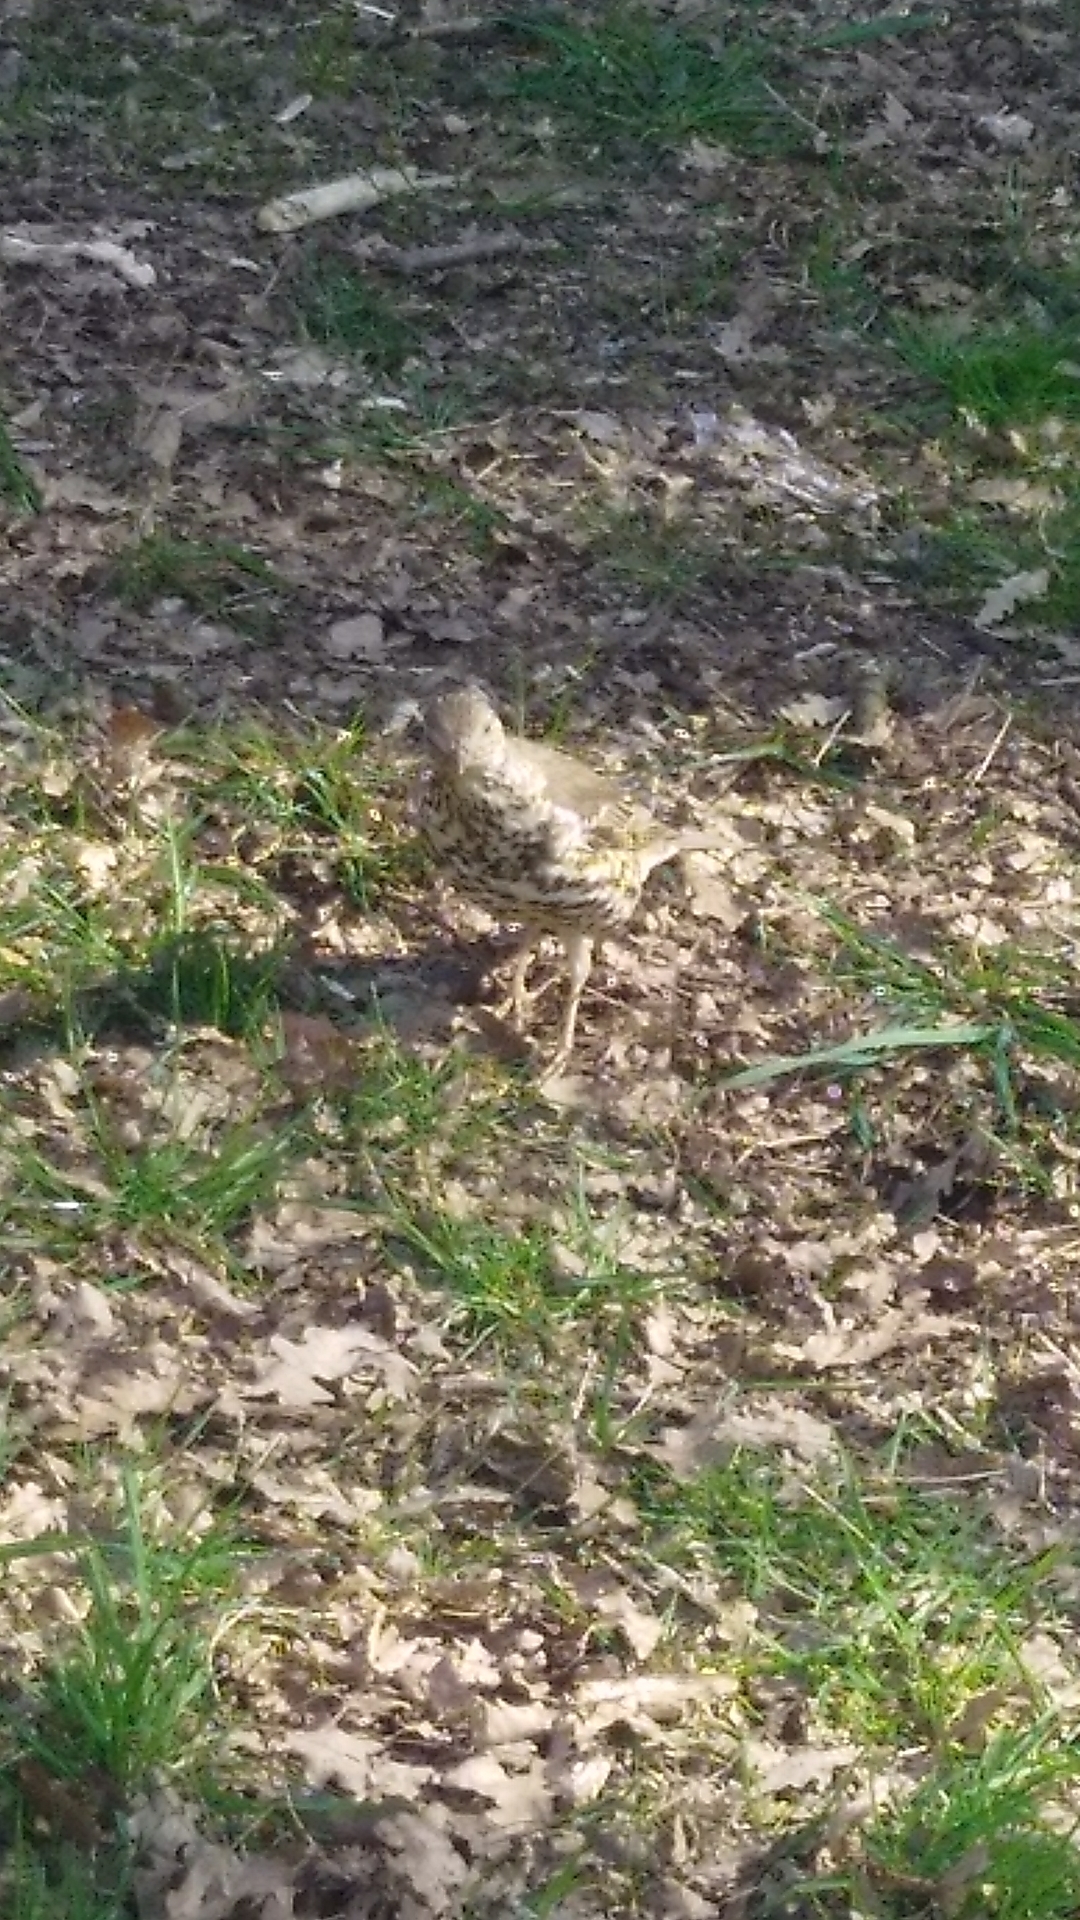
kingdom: Animalia
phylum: Chordata
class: Aves
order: Passeriformes
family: Turdidae
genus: Turdus
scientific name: Turdus viscivorus
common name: Mistle thrush
